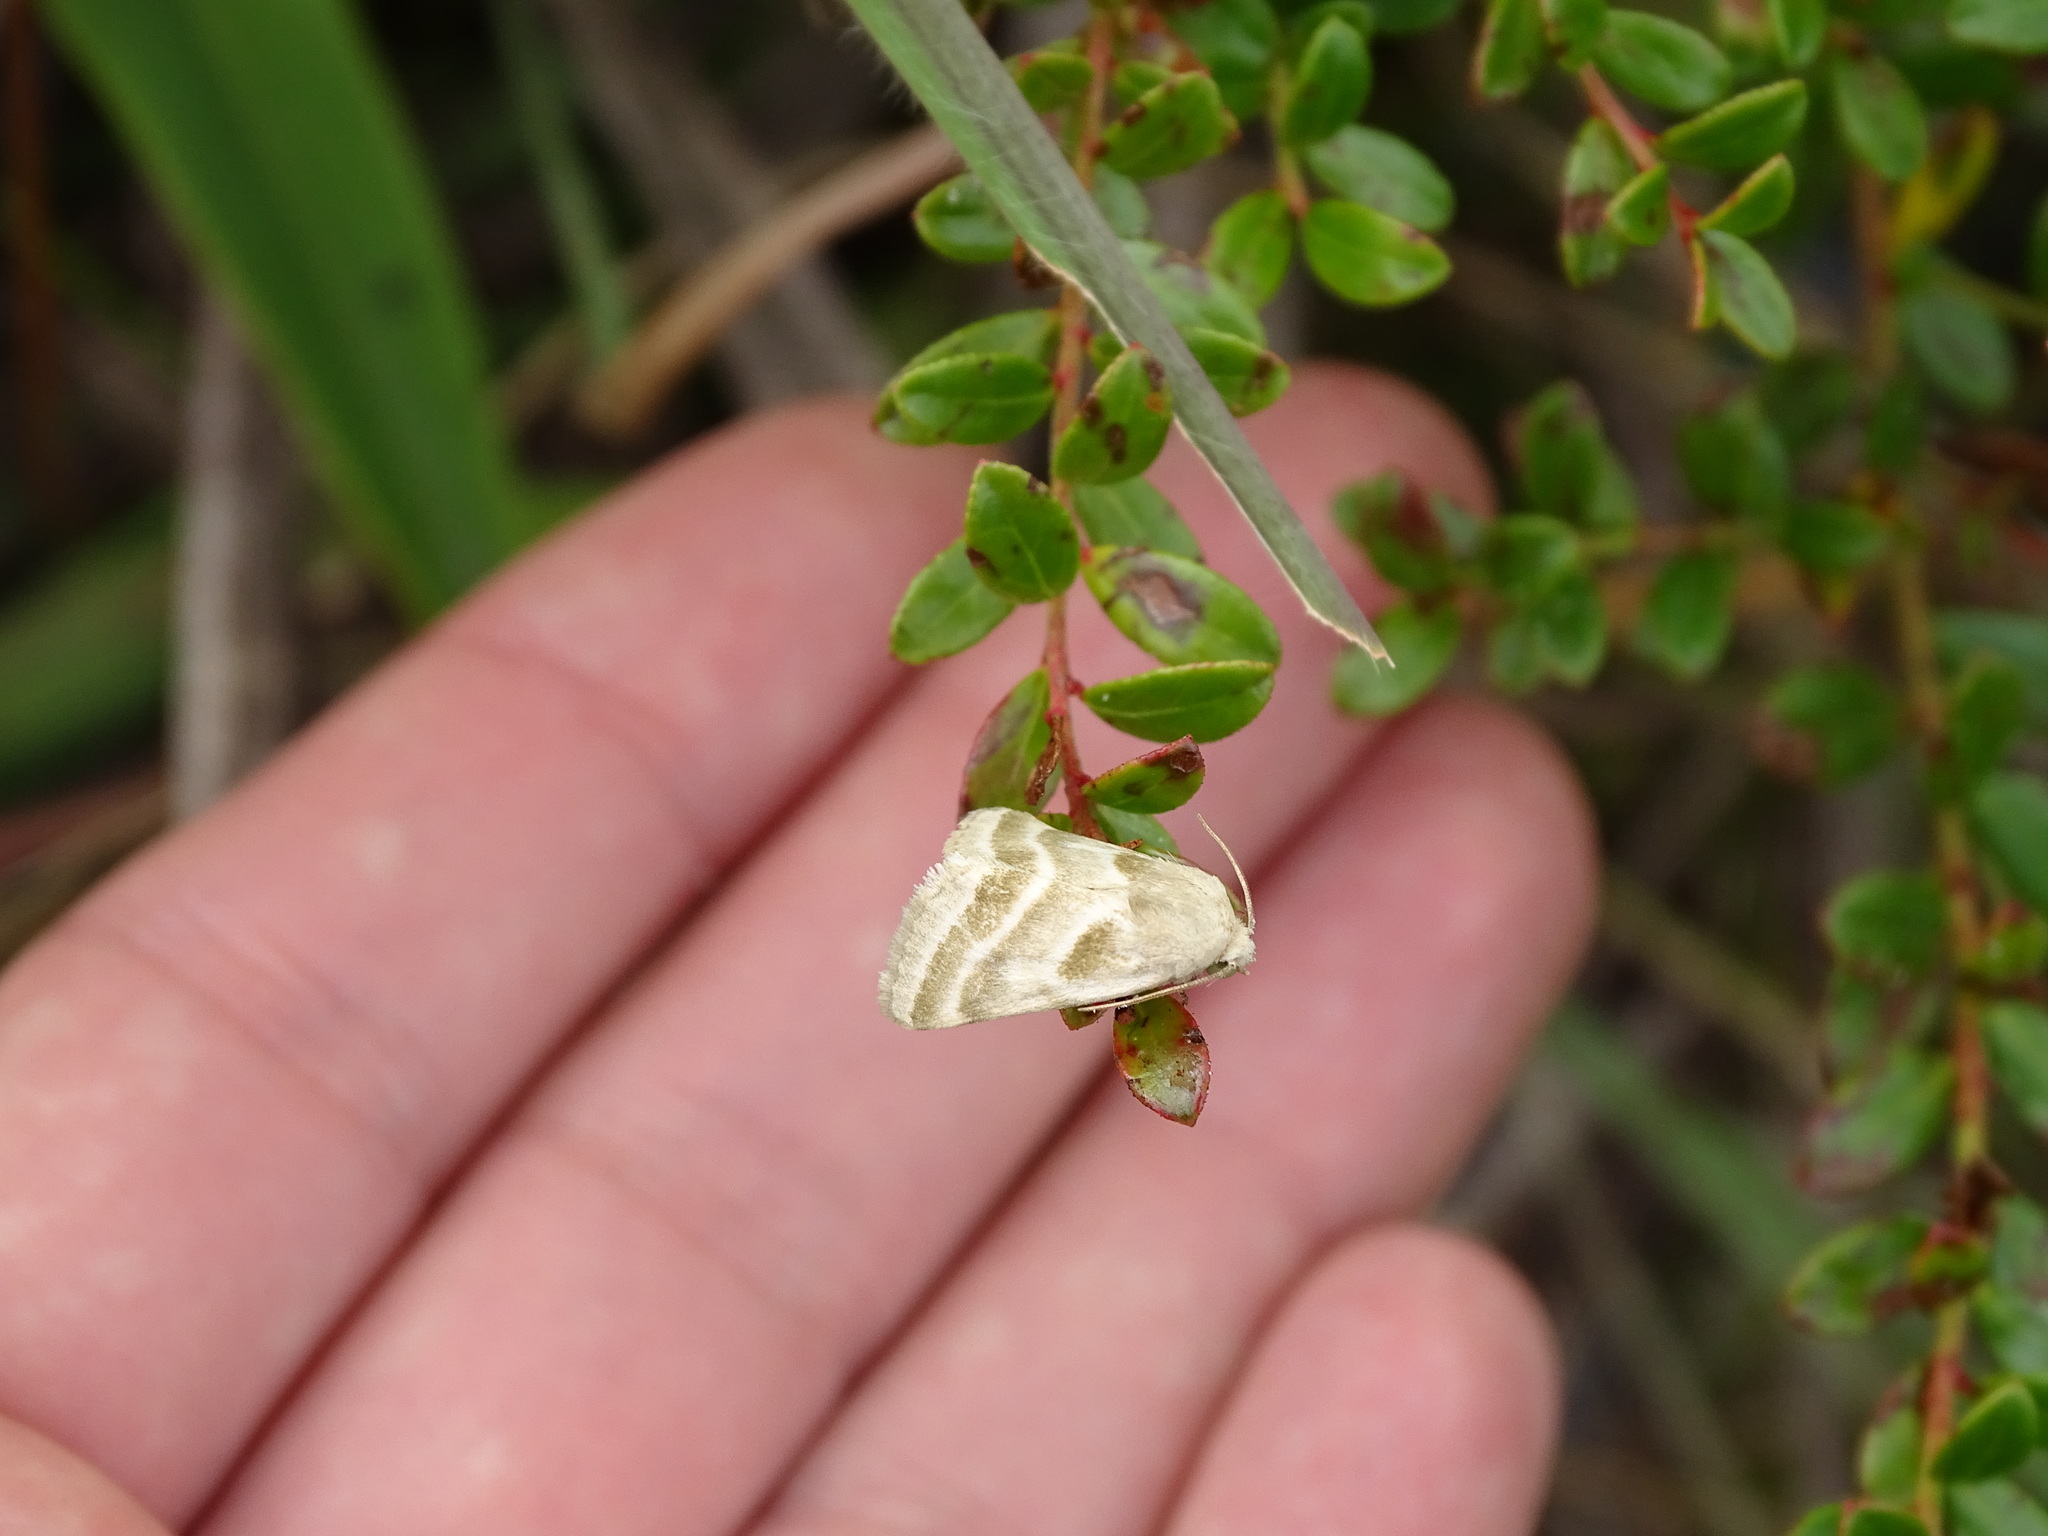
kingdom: Animalia
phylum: Arthropoda
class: Insecta
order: Lepidoptera
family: Noctuidae
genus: Schinia
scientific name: Schinia trifascia
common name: Three-lined flower moth
